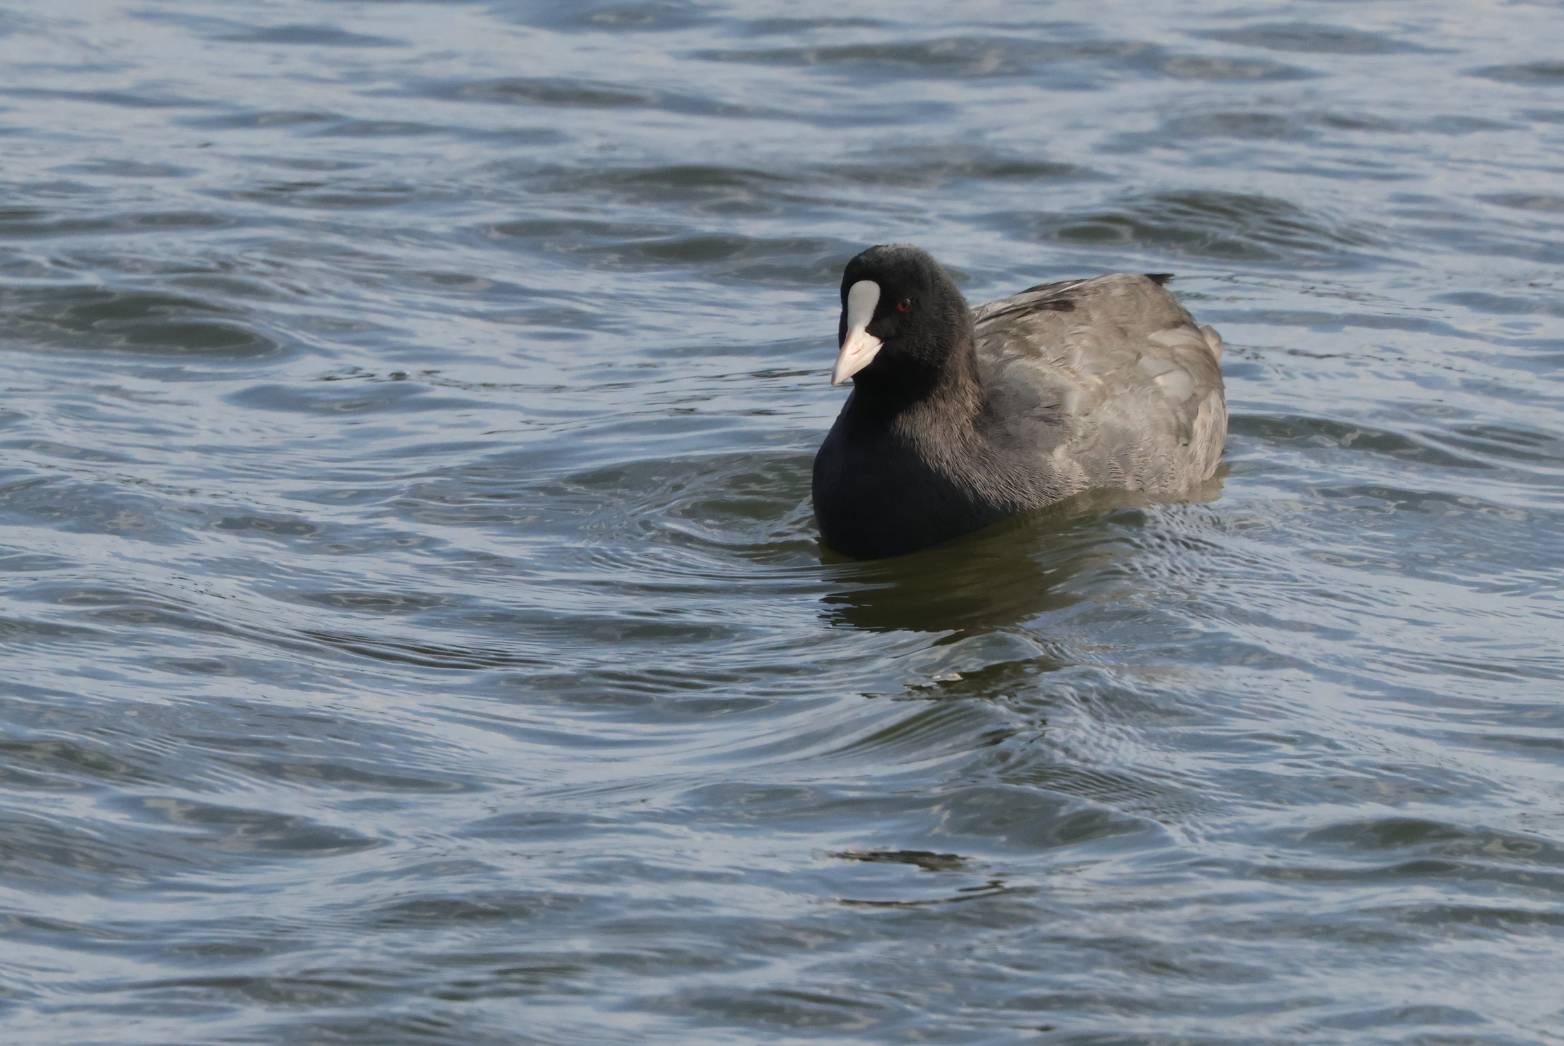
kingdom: Animalia
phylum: Chordata
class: Aves
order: Gruiformes
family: Rallidae
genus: Fulica
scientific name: Fulica atra
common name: Eurasian coot
